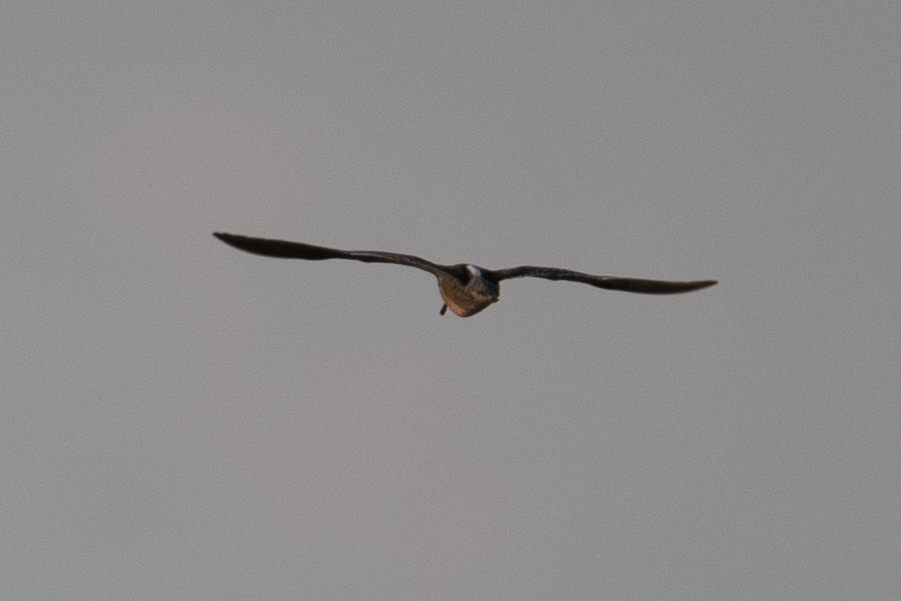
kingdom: Animalia
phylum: Chordata
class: Aves
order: Charadriiformes
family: Scolopacidae
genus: Limnodromus
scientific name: Limnodromus
